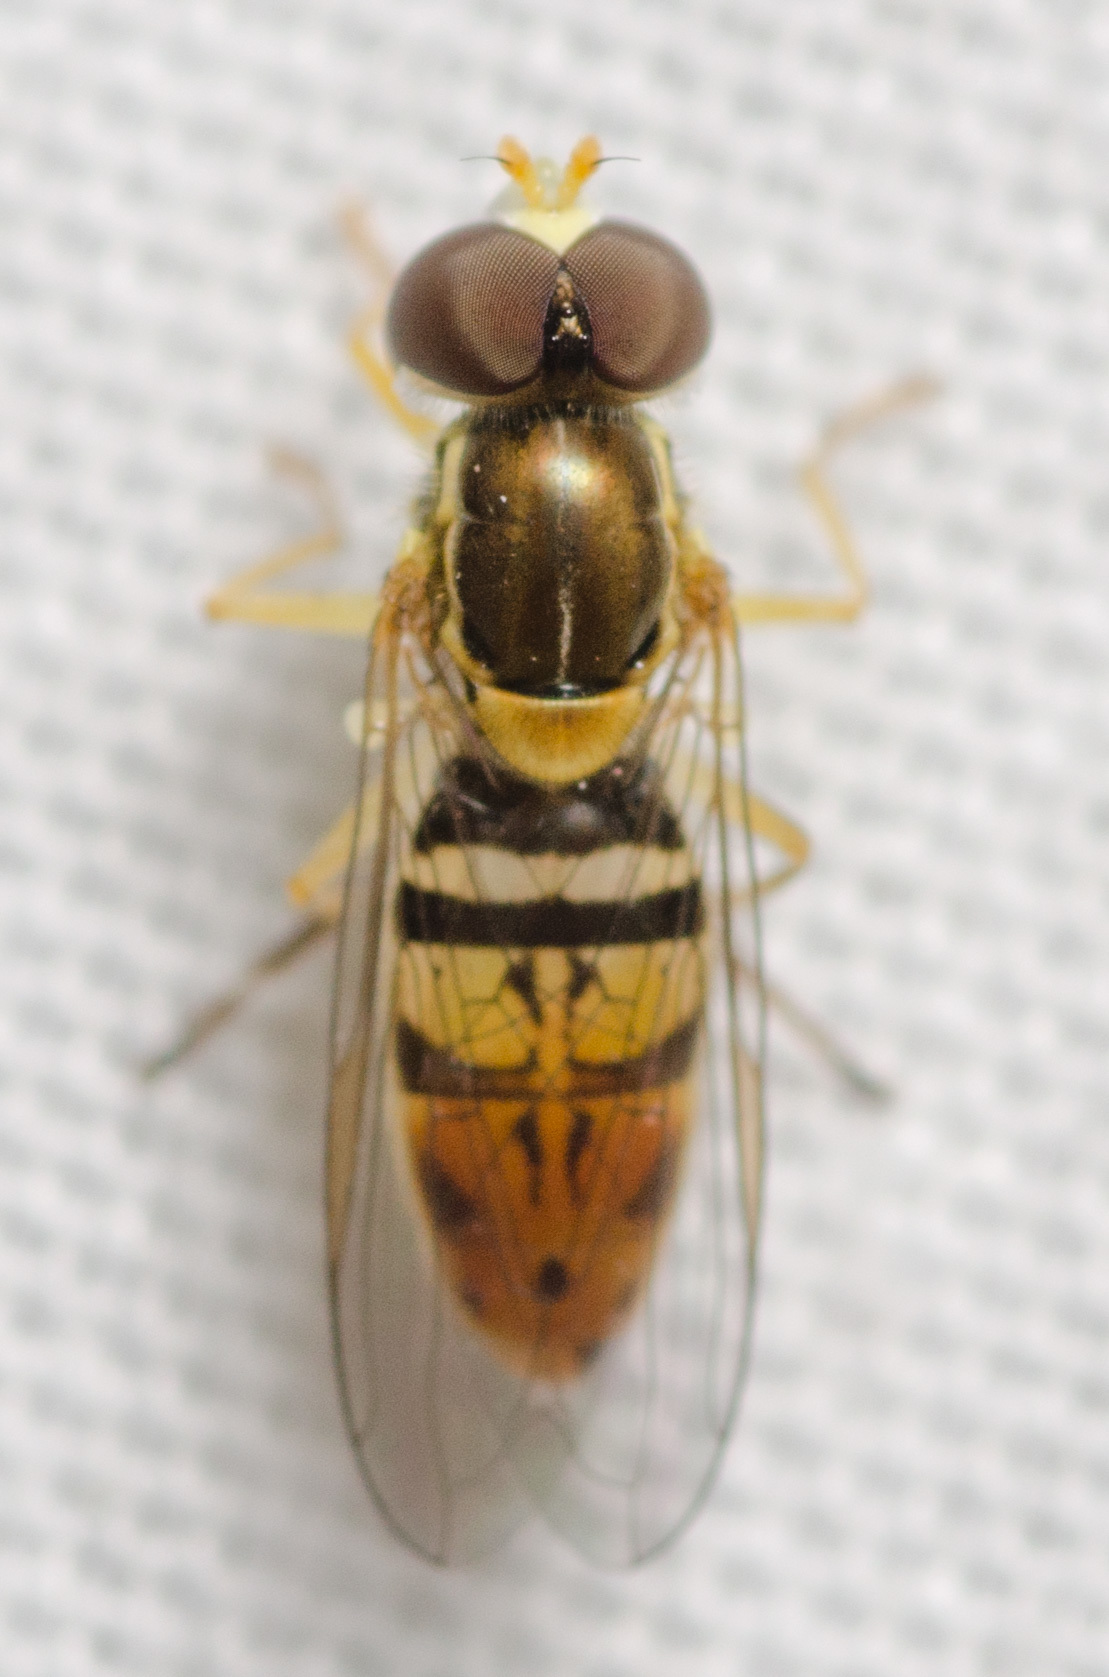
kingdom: Animalia
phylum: Arthropoda
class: Insecta
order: Diptera
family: Syrphidae
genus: Toxomerus
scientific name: Toxomerus marginatus
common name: Syrphid fly
